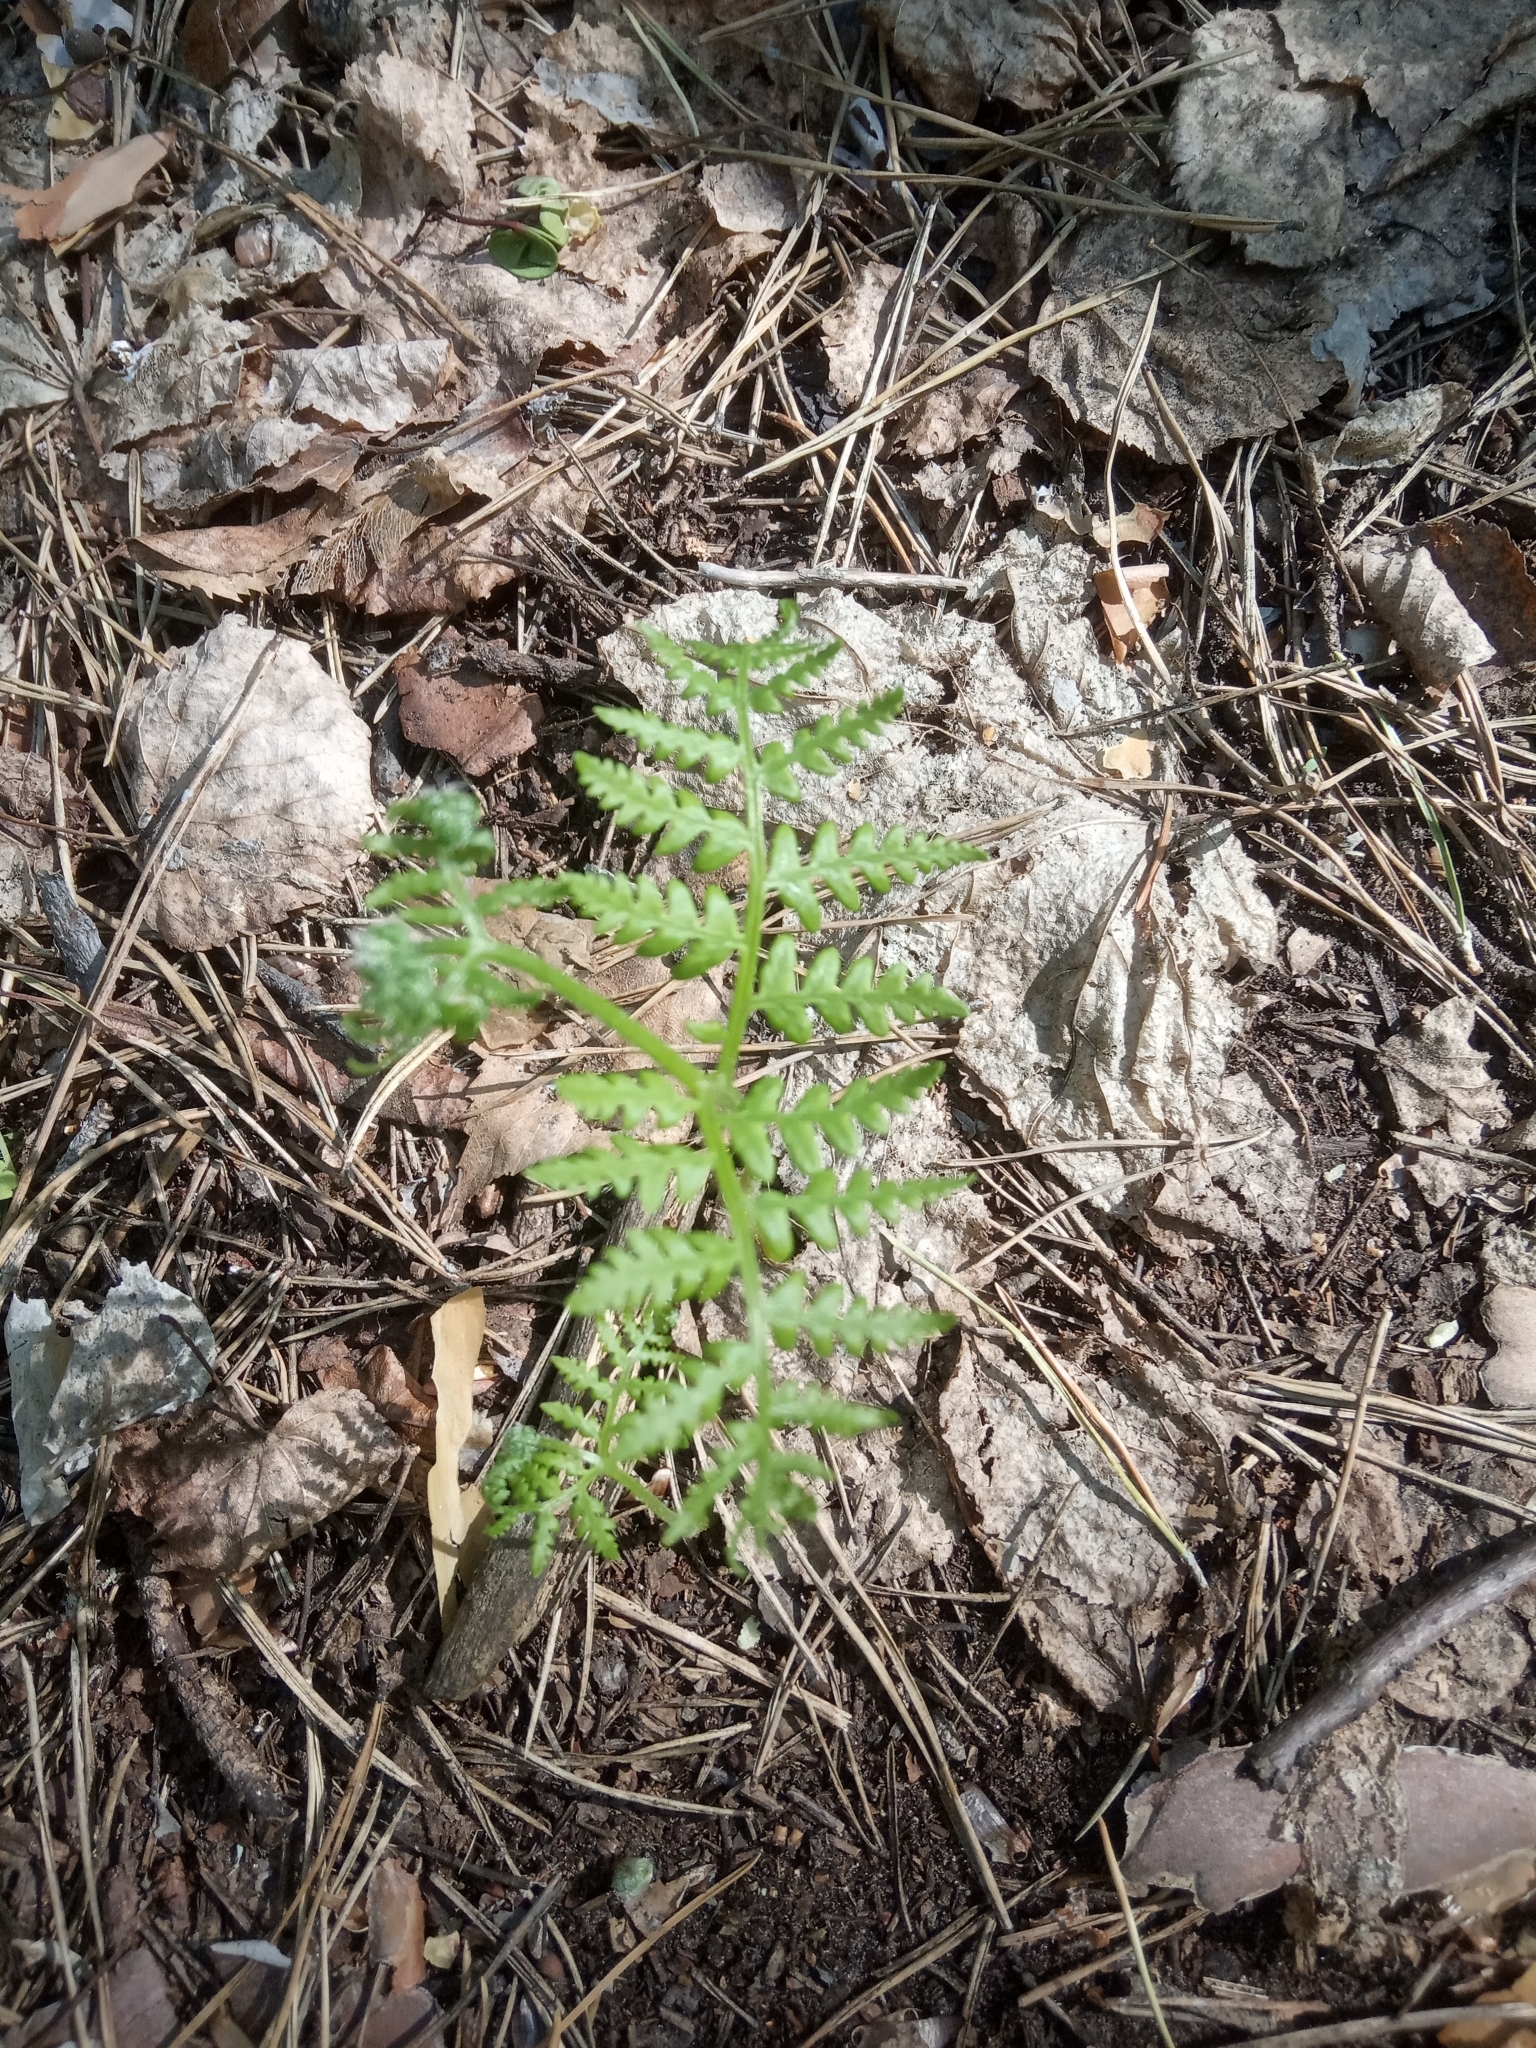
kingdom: Plantae
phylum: Tracheophyta
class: Polypodiopsida
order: Polypodiales
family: Dennstaedtiaceae
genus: Pteridium
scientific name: Pteridium aquilinum
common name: Bracken
